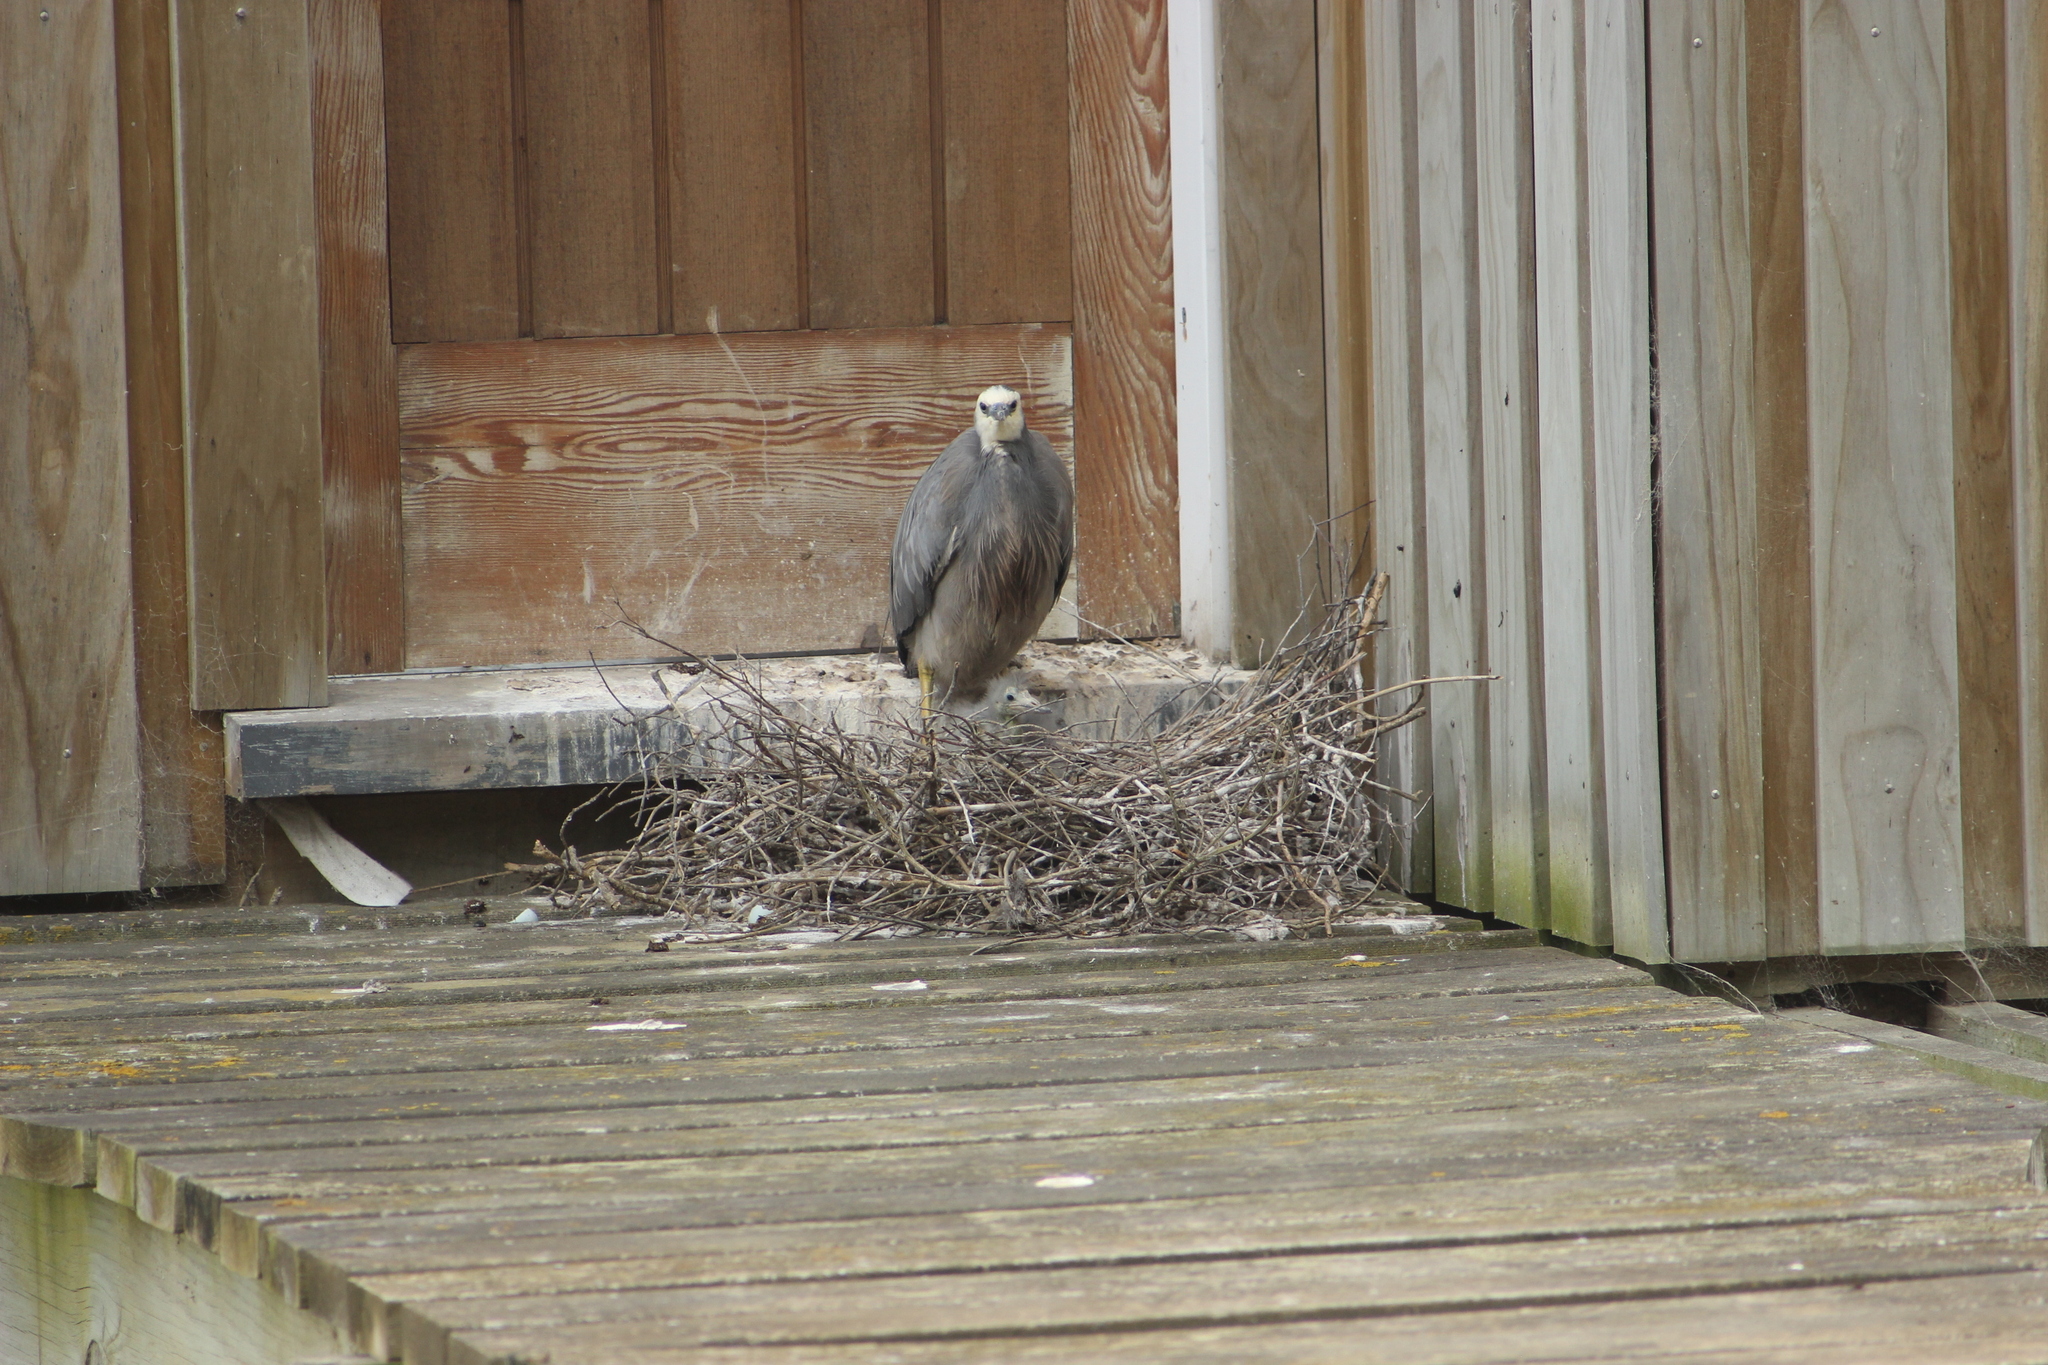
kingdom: Animalia
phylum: Chordata
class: Aves
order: Pelecaniformes
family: Ardeidae
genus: Egretta
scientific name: Egretta novaehollandiae
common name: White-faced heron
